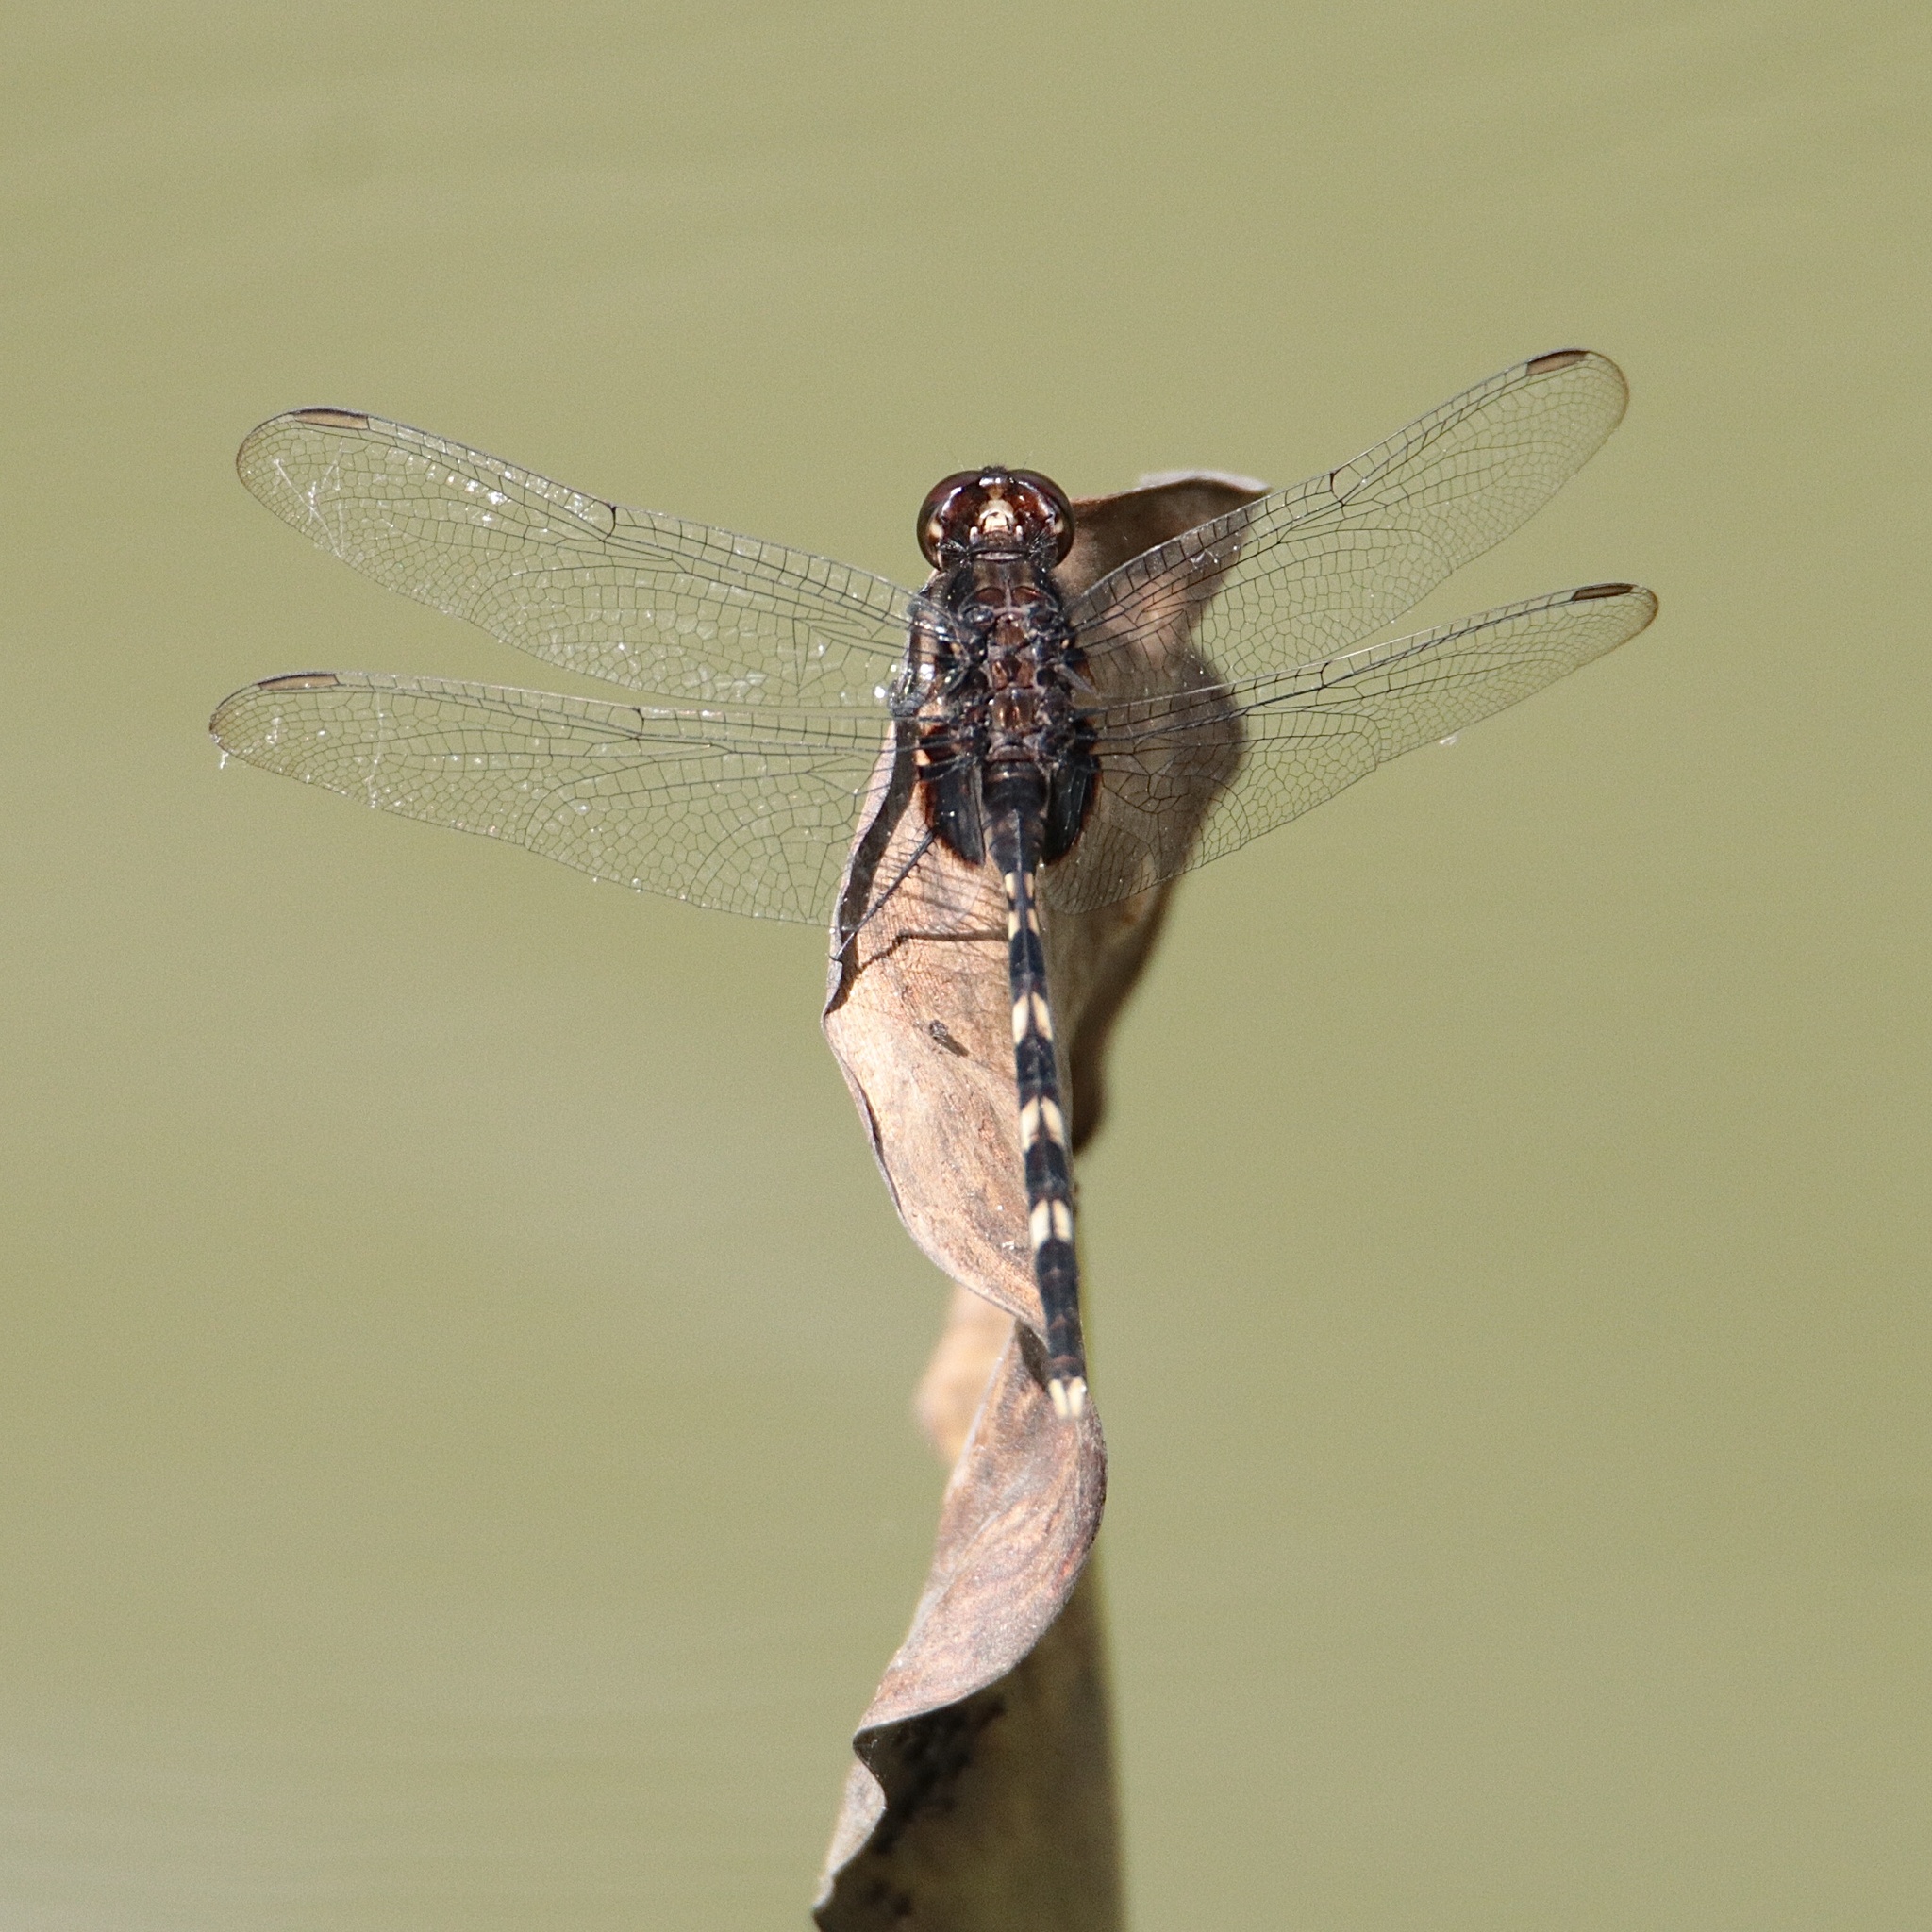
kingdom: Animalia
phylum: Arthropoda
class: Insecta
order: Odonata
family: Libellulidae
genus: Erythemis
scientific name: Erythemis plebeja
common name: Pin-tailed pondhawk
